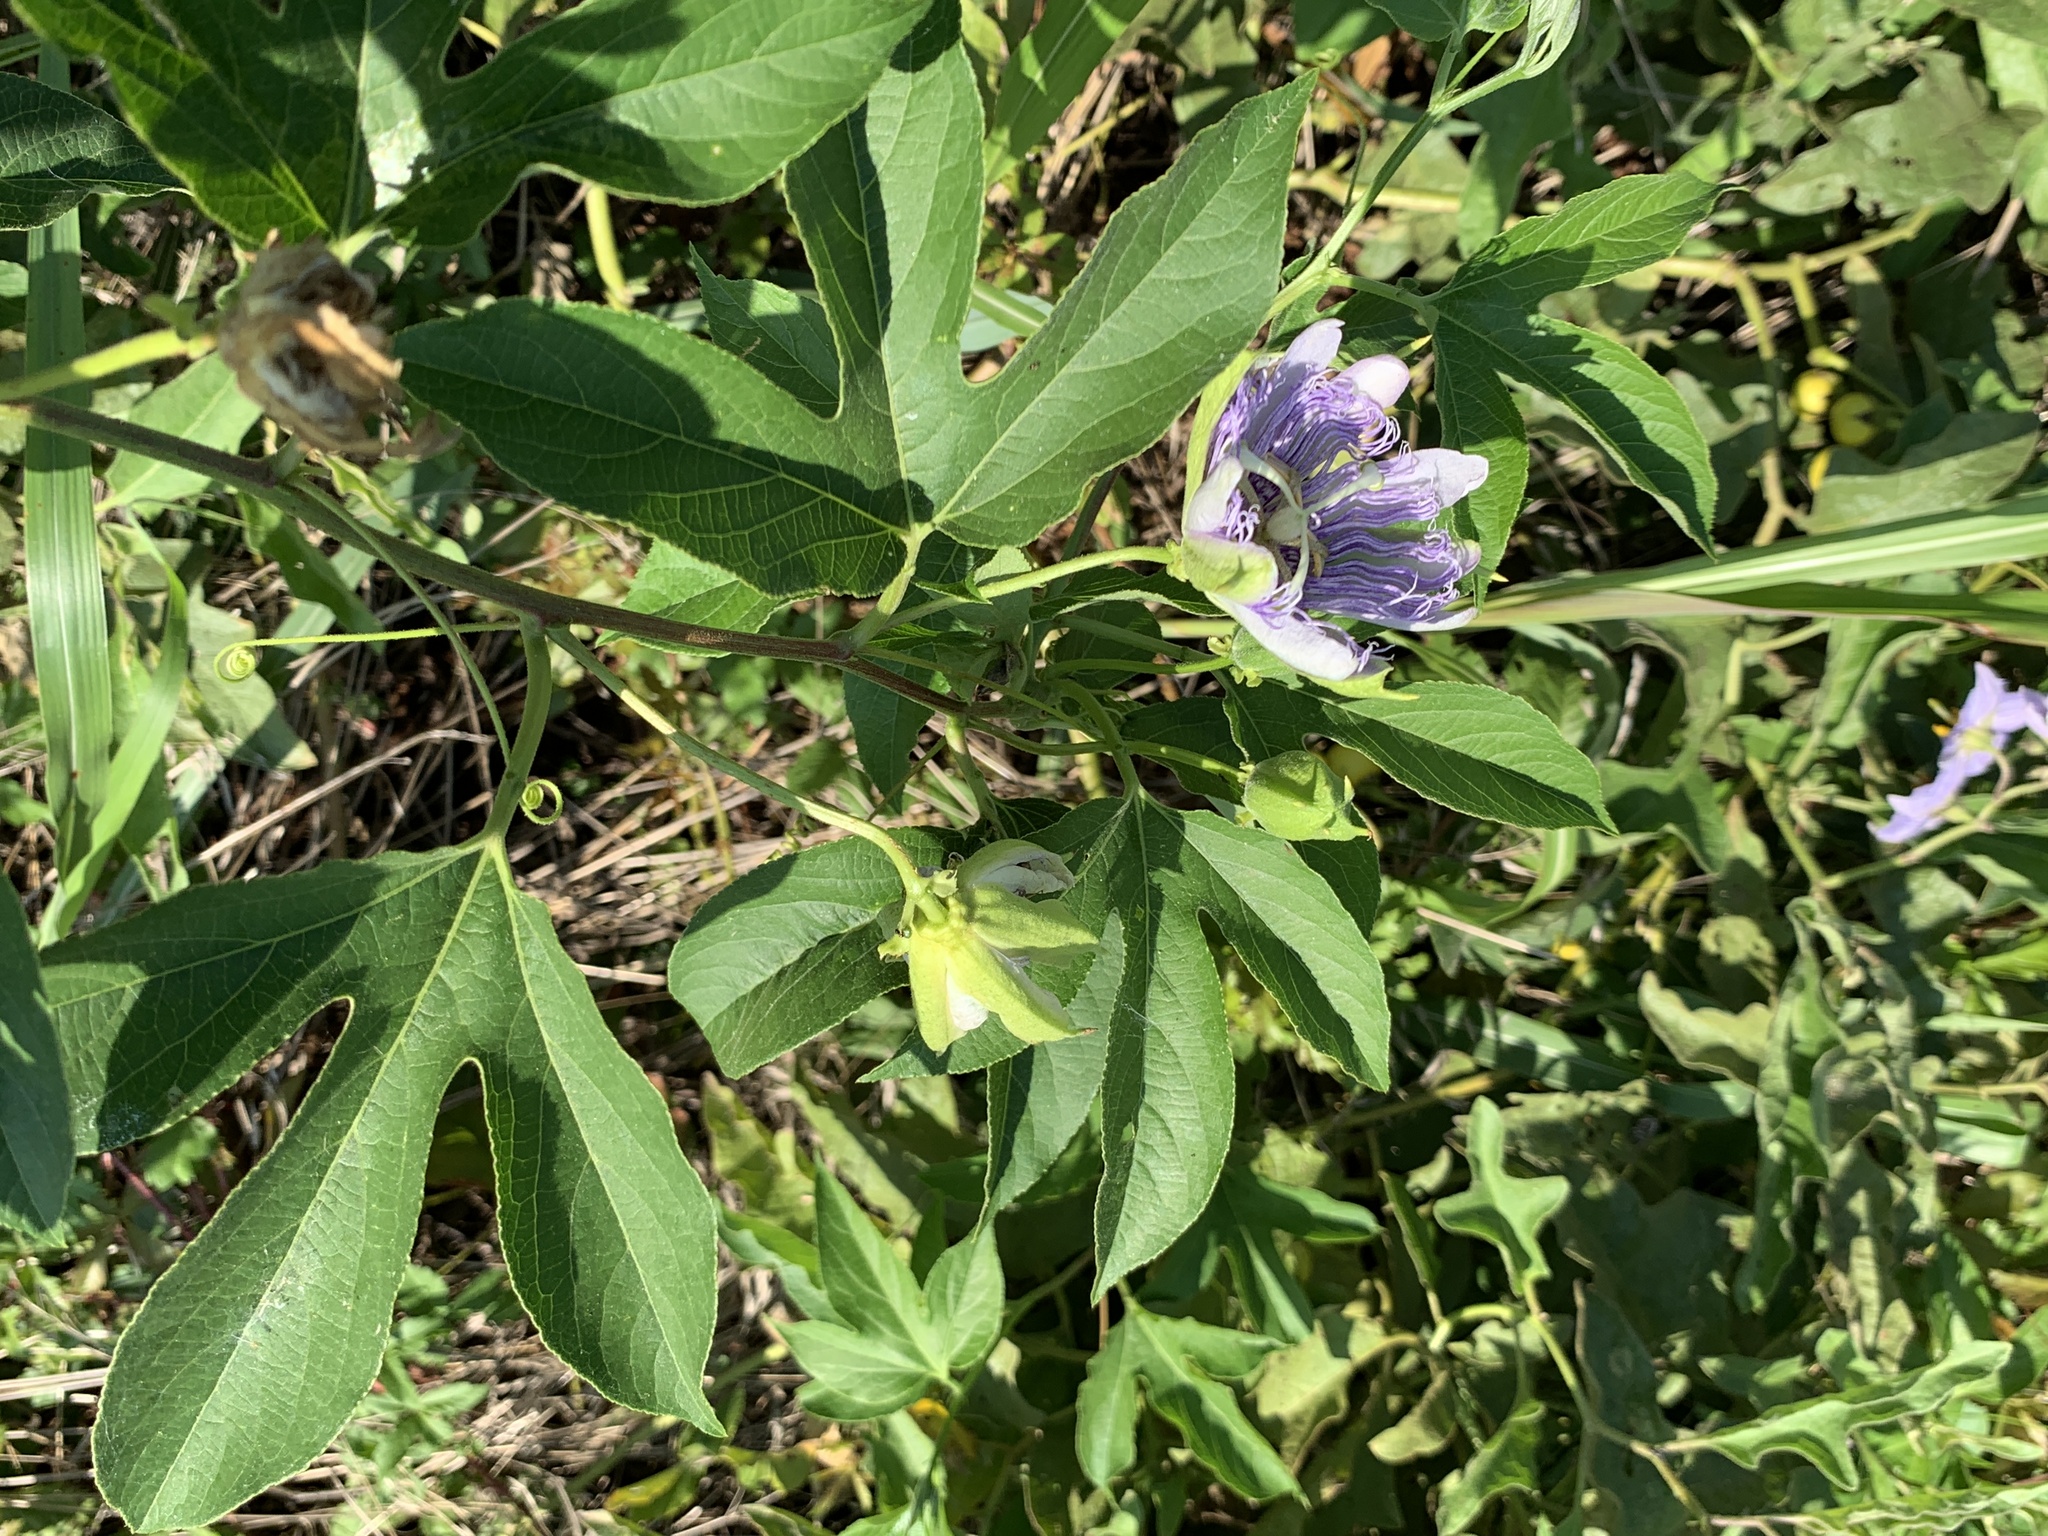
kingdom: Plantae
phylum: Tracheophyta
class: Magnoliopsida
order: Malpighiales
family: Passifloraceae
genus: Passiflora
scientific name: Passiflora incarnata
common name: Apricot-vine
